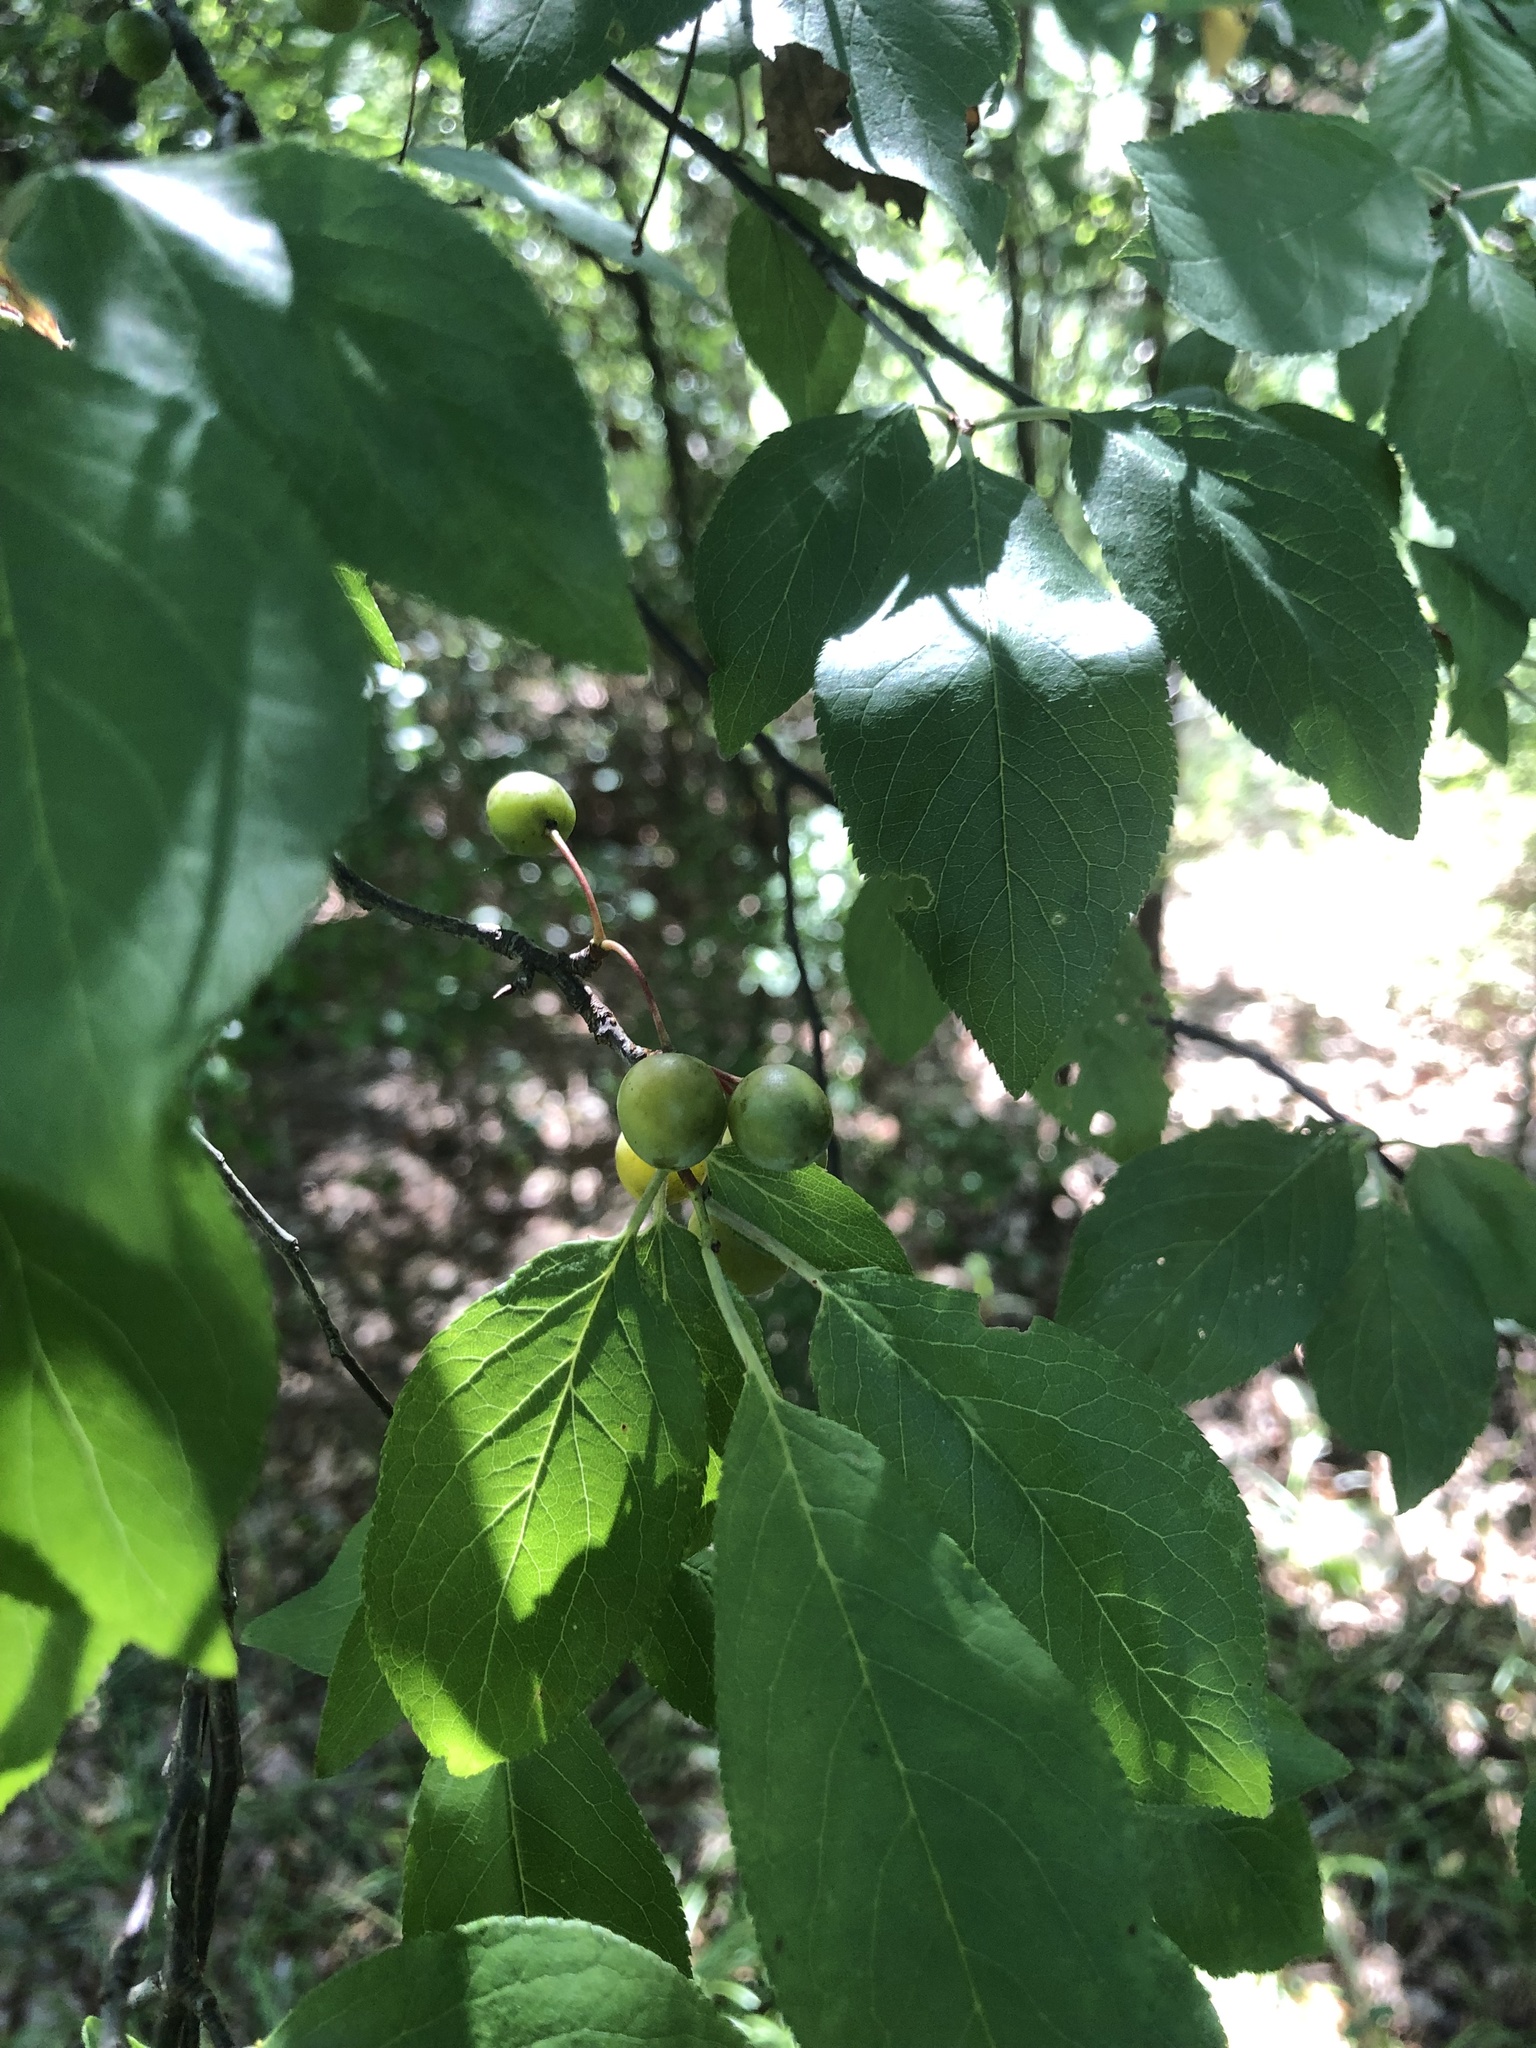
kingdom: Plantae
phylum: Tracheophyta
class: Magnoliopsida
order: Rosales
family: Rosaceae
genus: Prunus
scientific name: Prunus umbellata
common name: Allegheny plum
